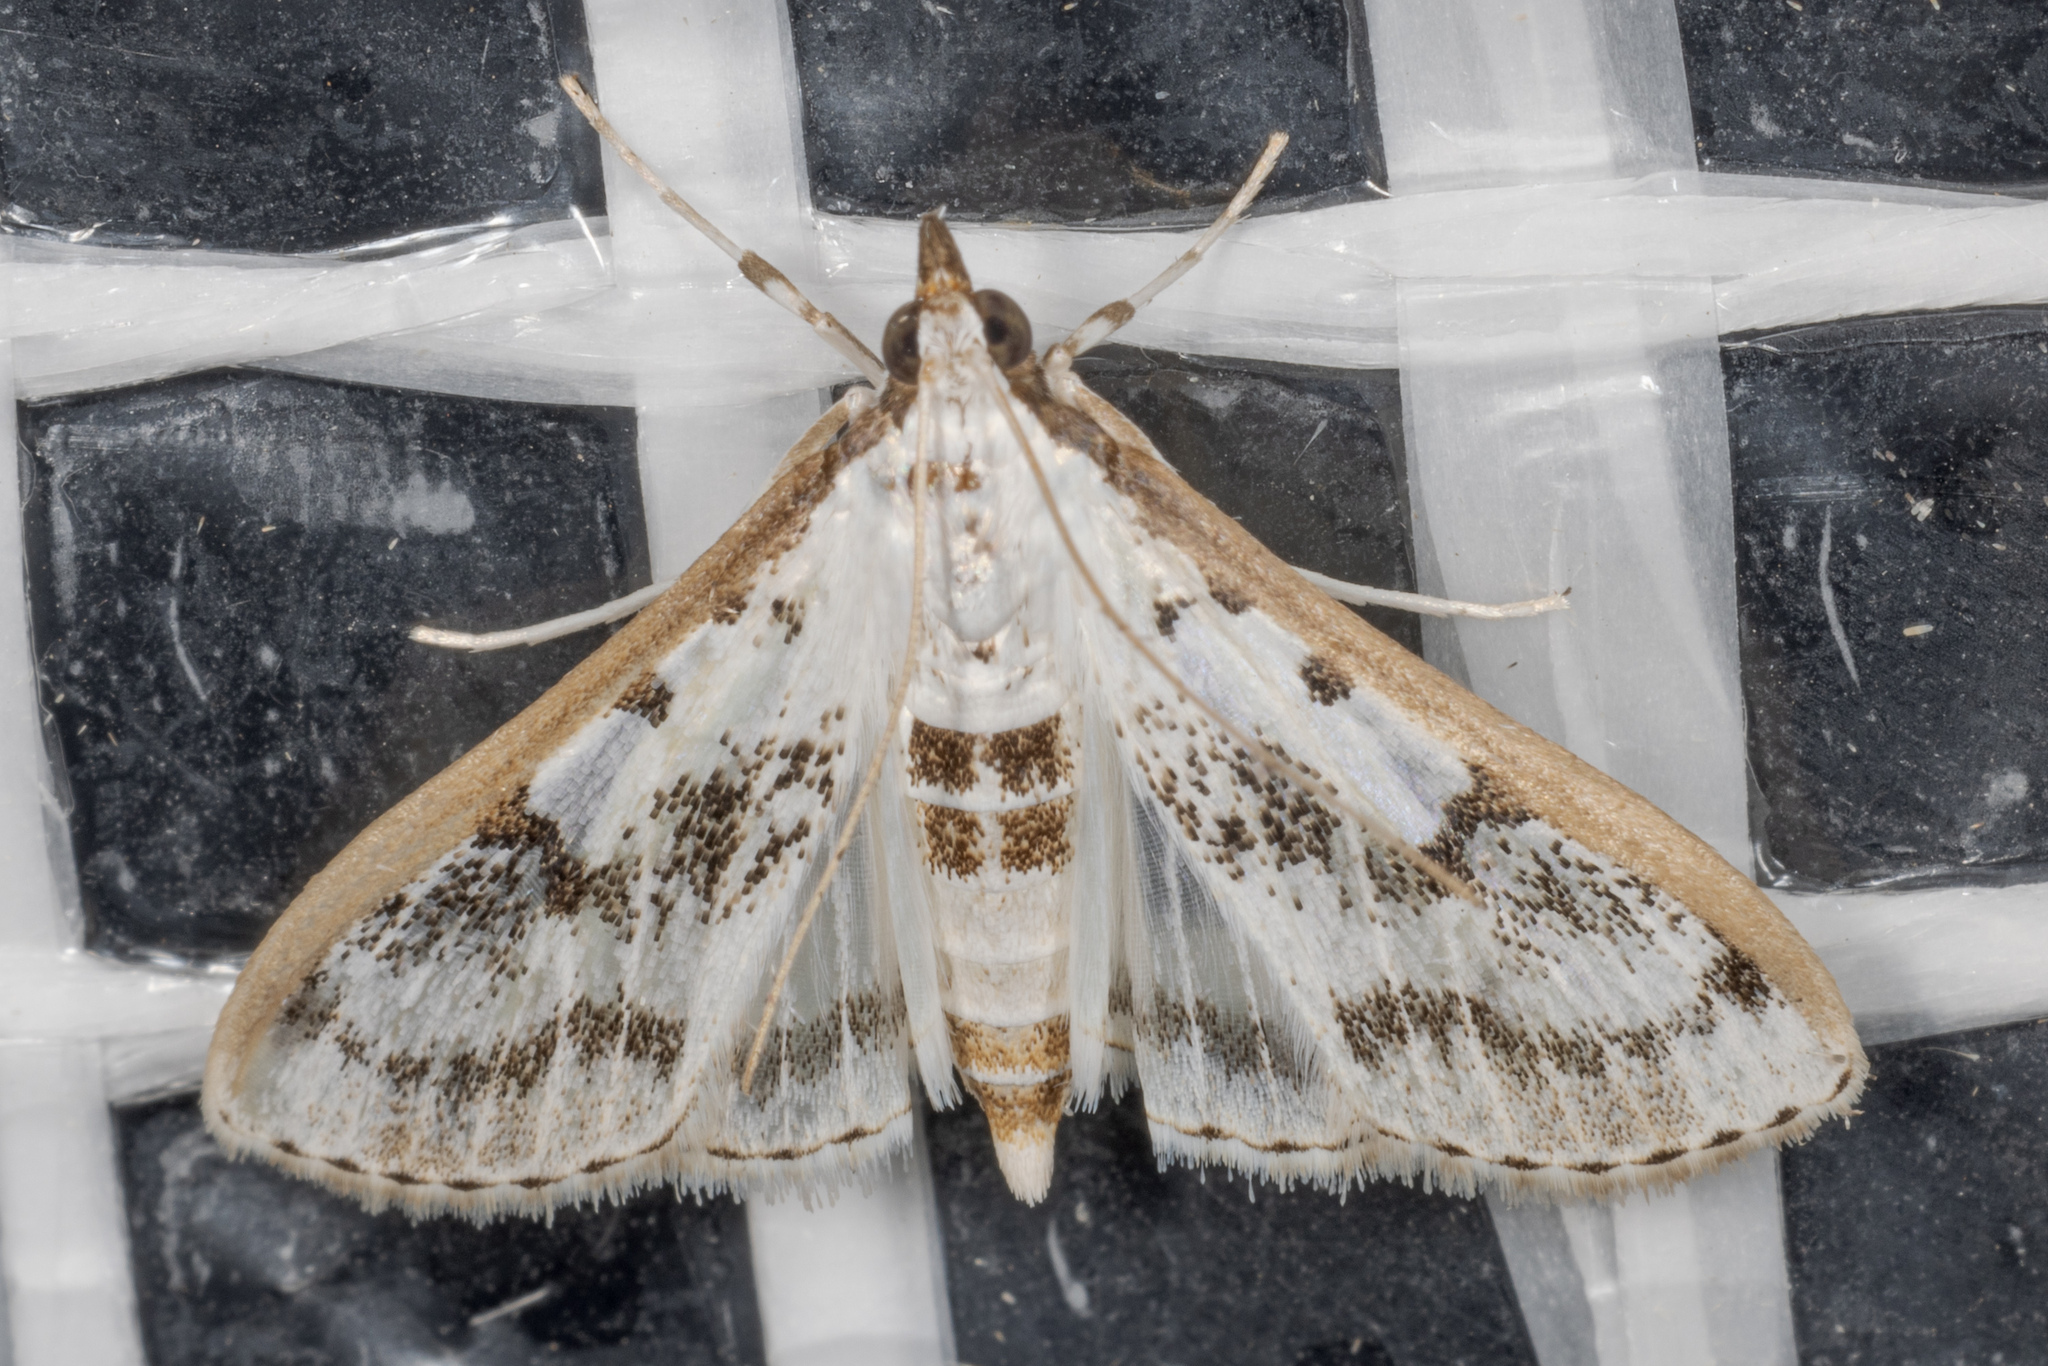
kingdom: Animalia
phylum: Arthropoda
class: Insecta
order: Lepidoptera
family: Crambidae
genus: Palpita
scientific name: Palpita gracilalis
